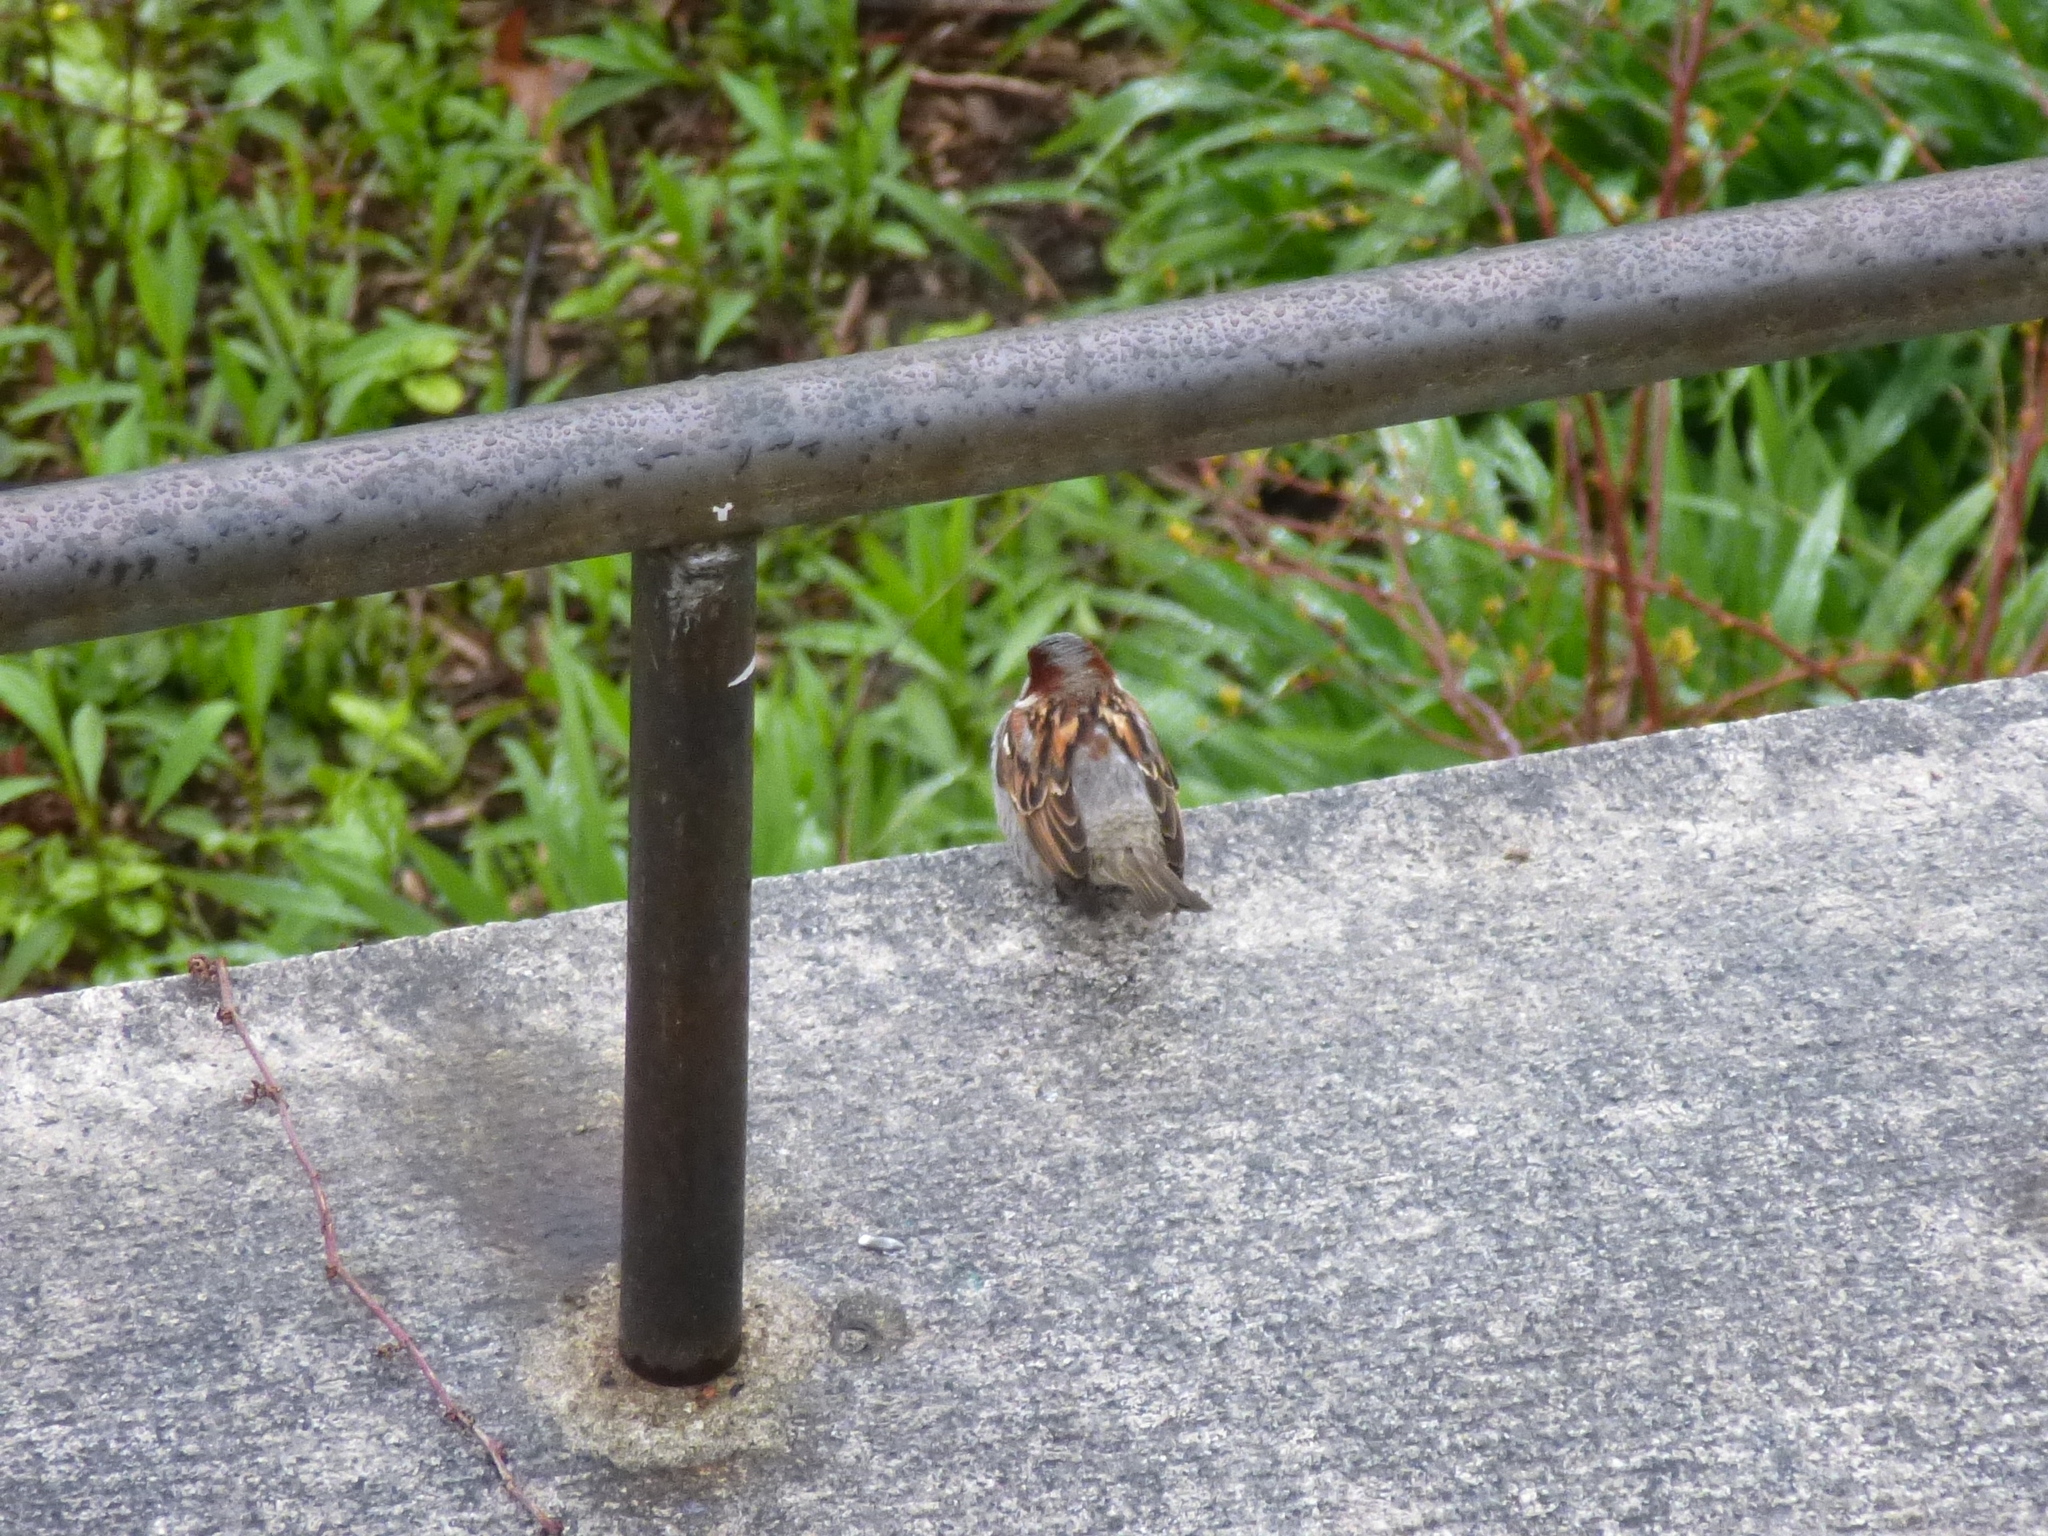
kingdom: Animalia
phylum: Chordata
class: Aves
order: Passeriformes
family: Passeridae
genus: Passer
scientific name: Passer domesticus
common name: House sparrow
